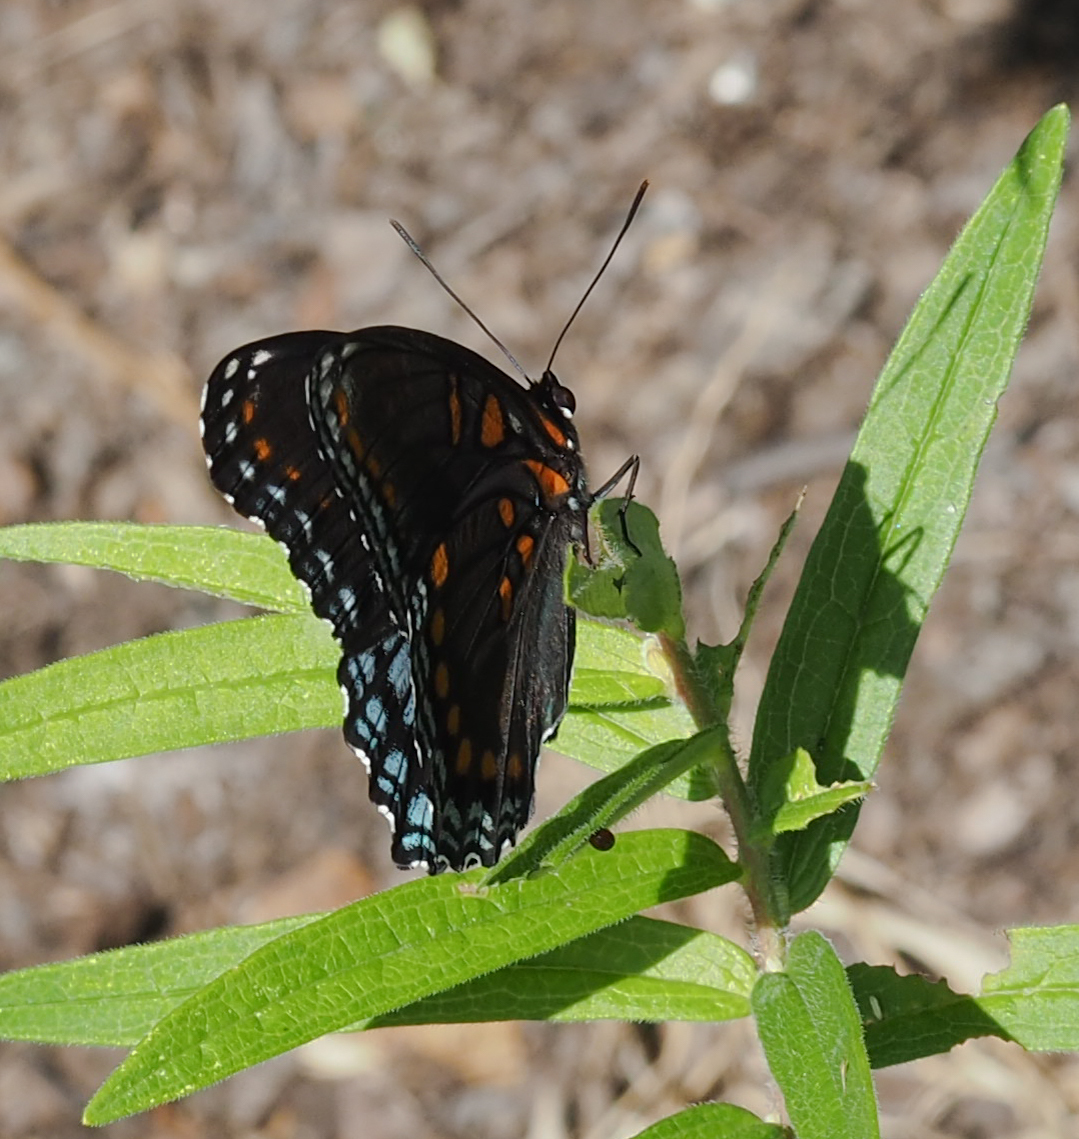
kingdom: Animalia
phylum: Arthropoda
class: Insecta
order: Lepidoptera
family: Nymphalidae
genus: Limenitis
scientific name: Limenitis astyanax
